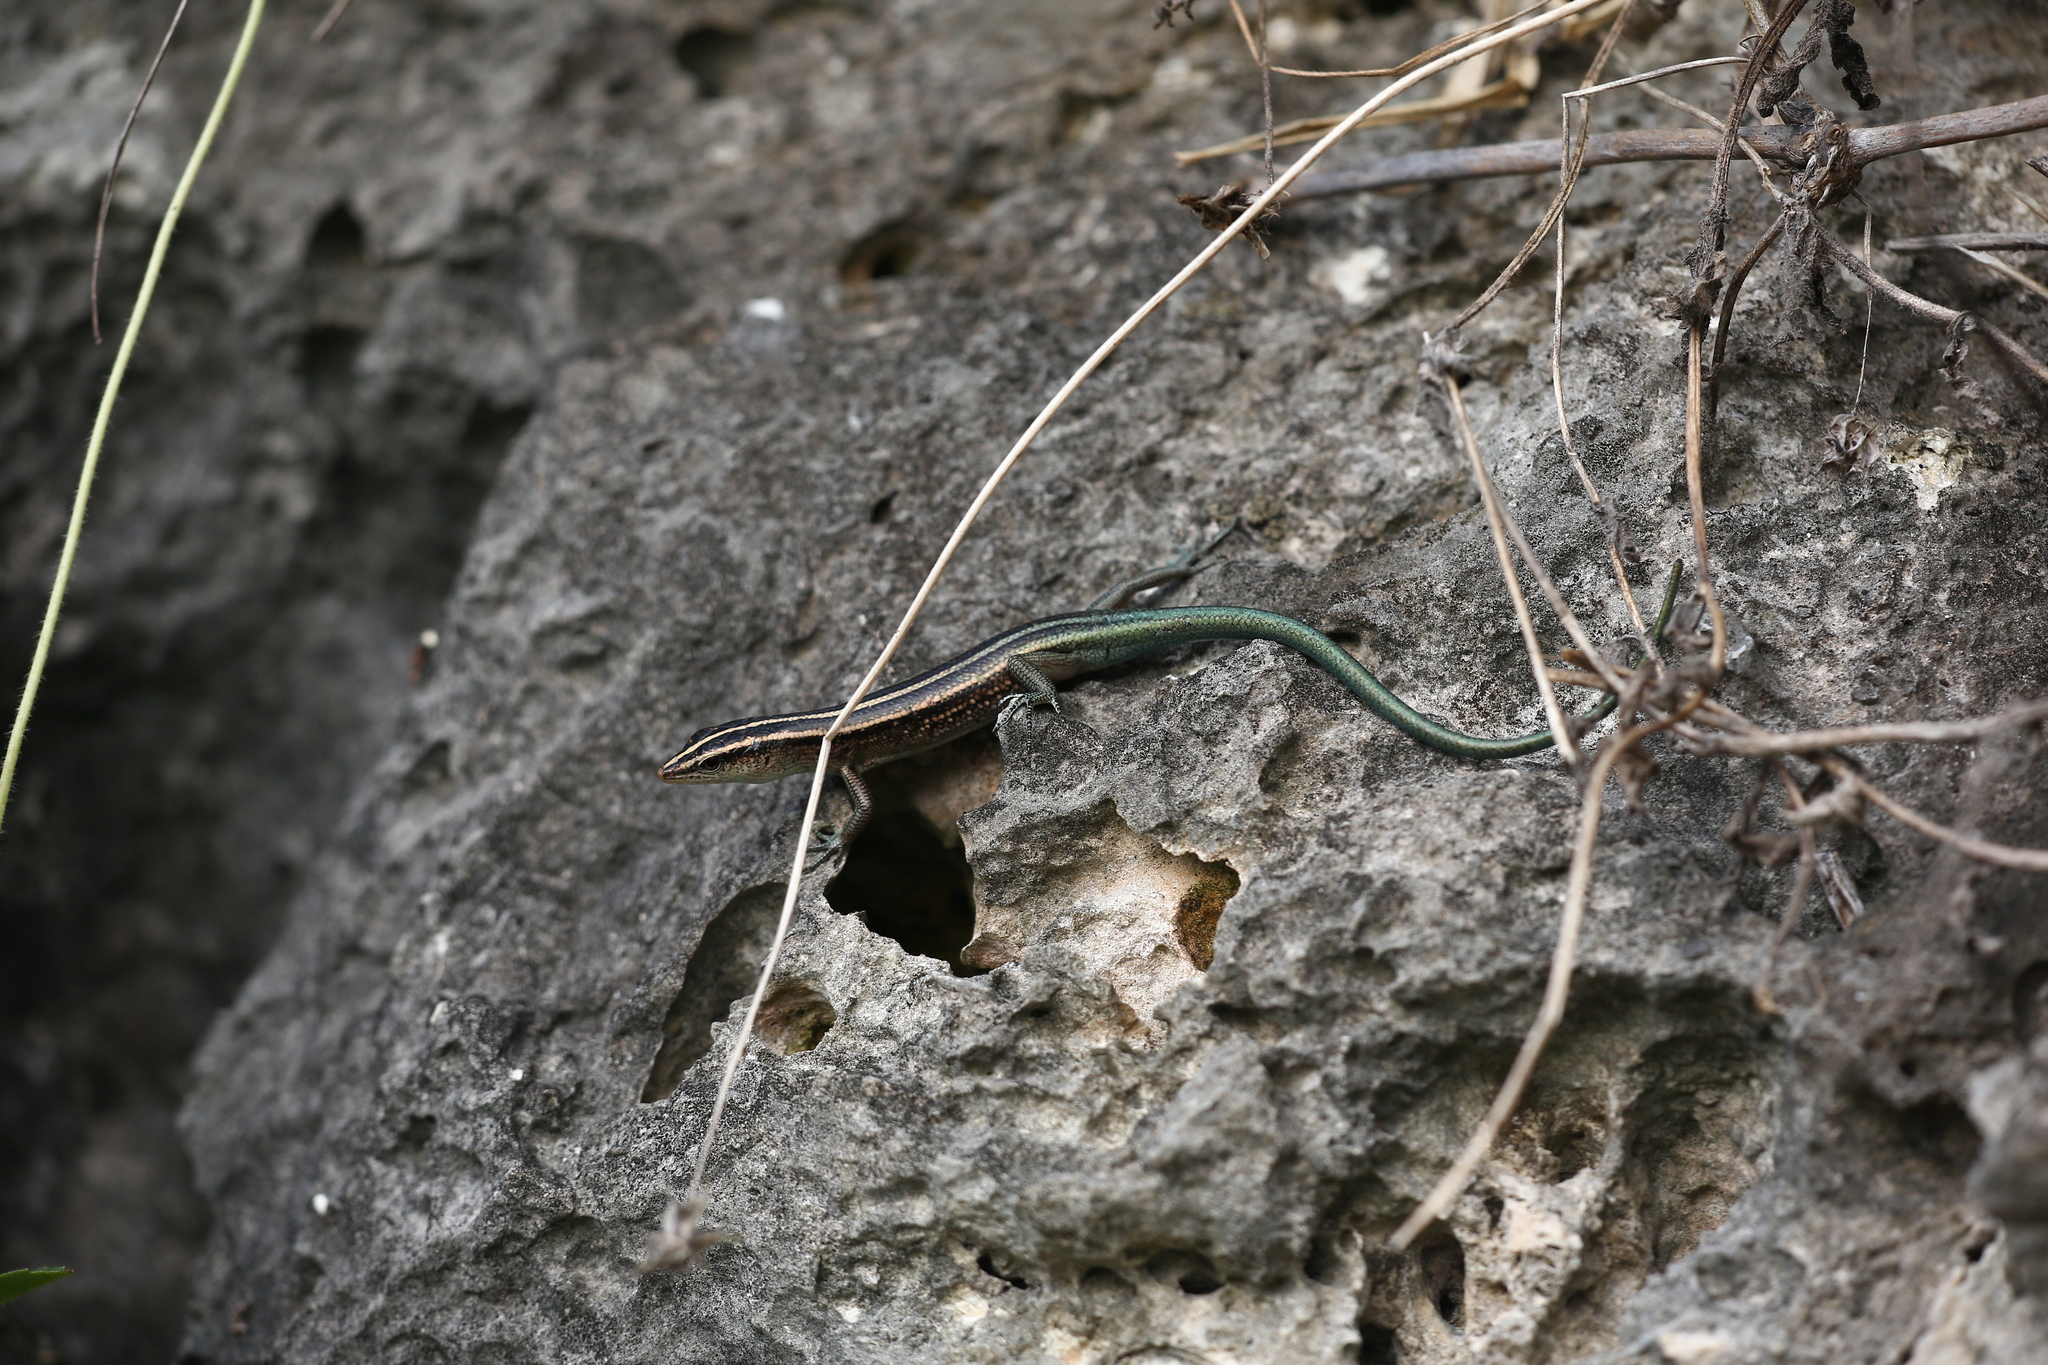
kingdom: Animalia
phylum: Chordata
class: Squamata
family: Scincidae
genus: Emoia
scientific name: Emoia cyanura
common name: Copper-tailed skink
